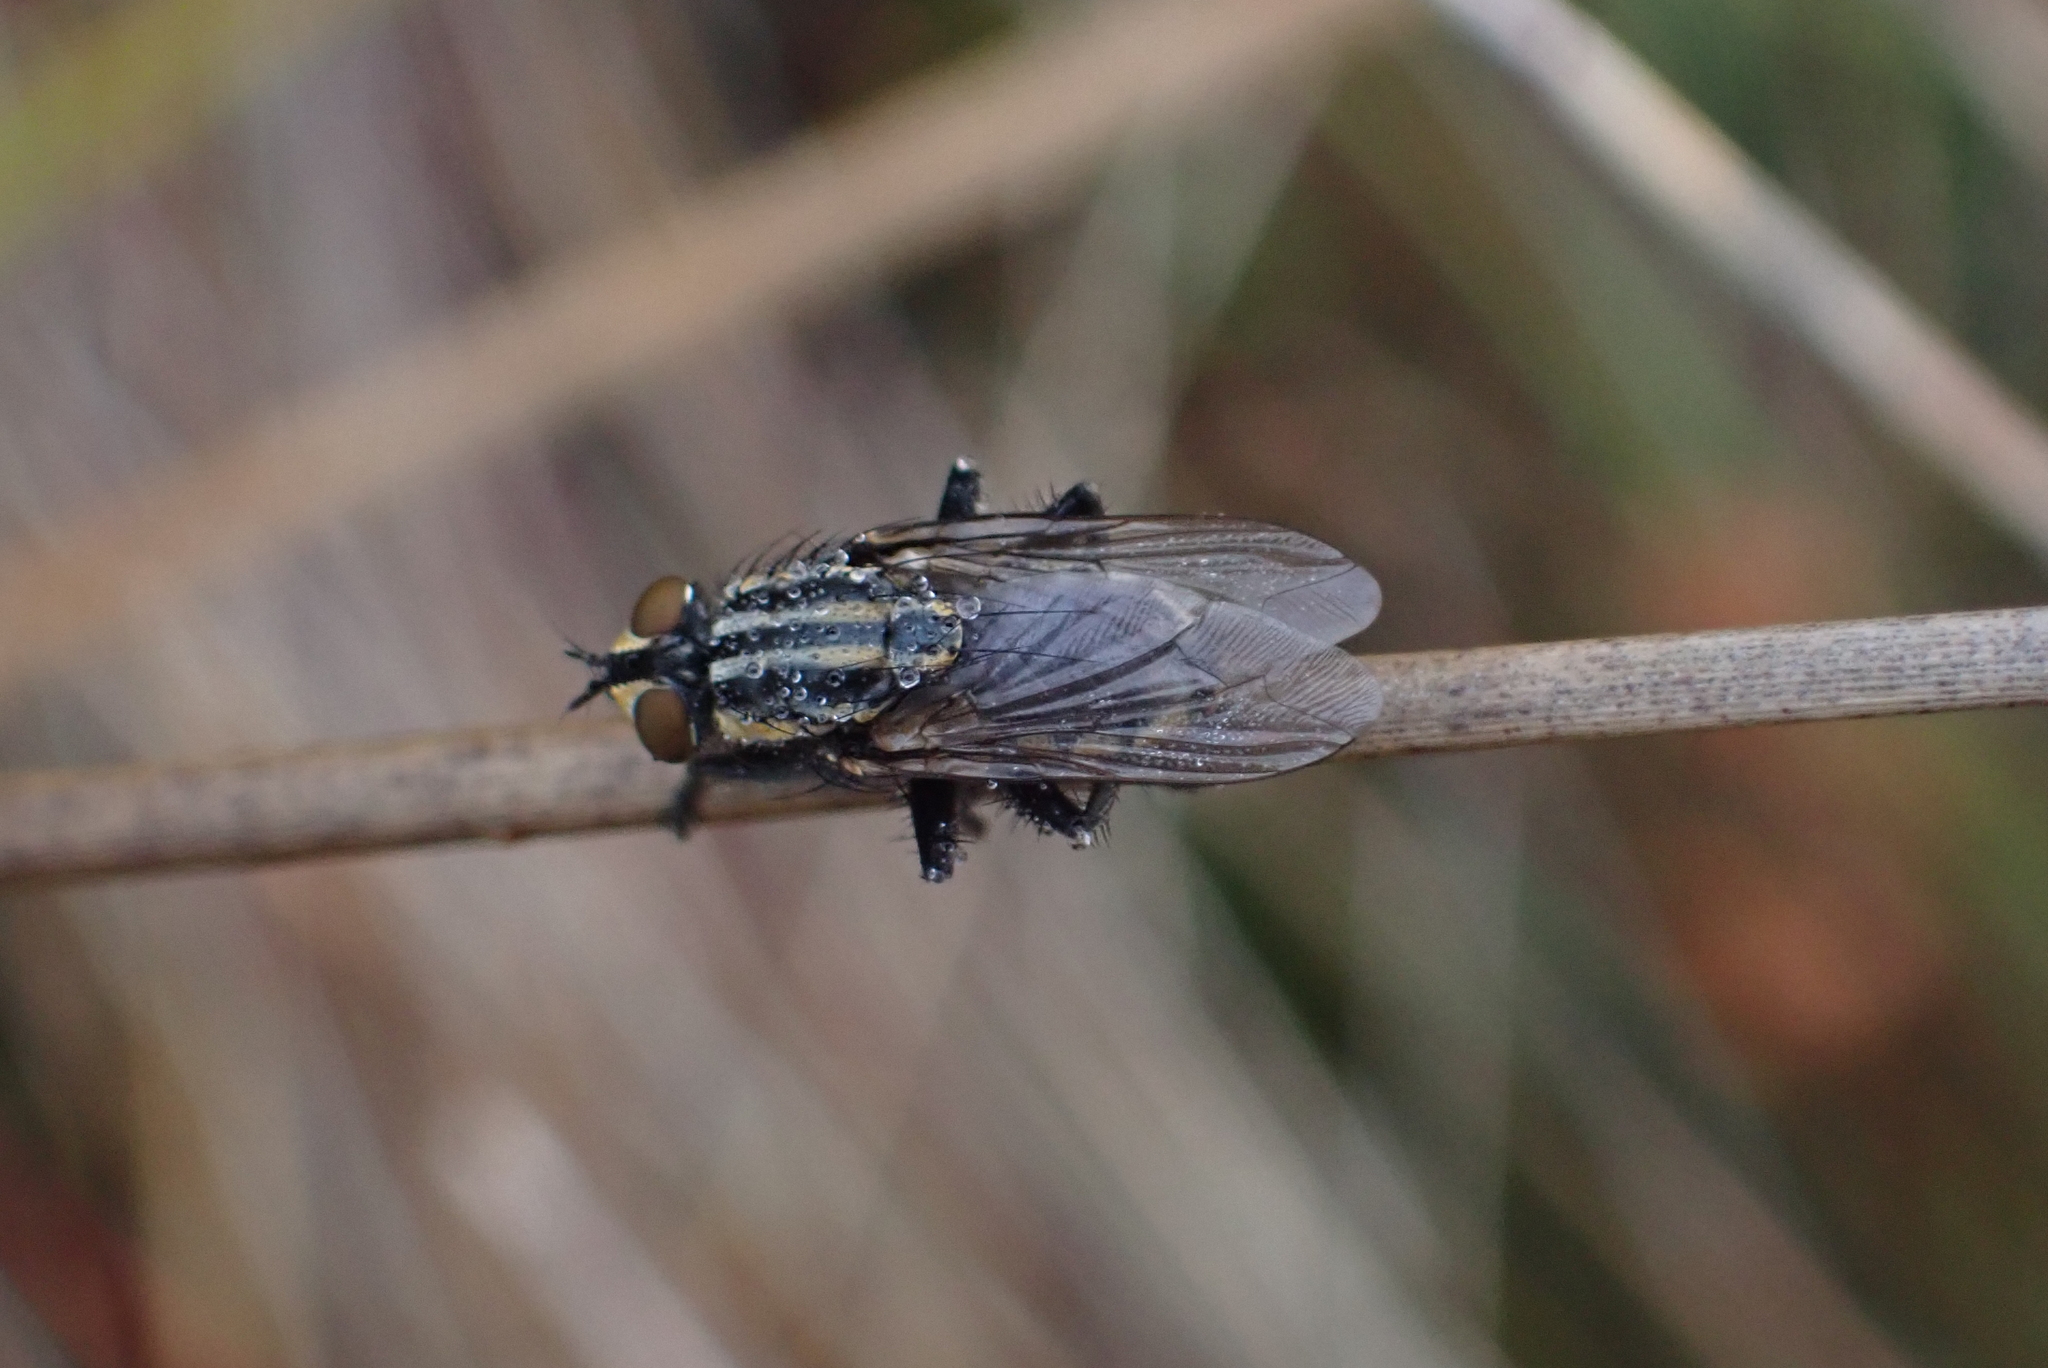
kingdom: Animalia
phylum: Arthropoda
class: Insecta
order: Diptera
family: Sarcophagidae
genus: Oxysarcodexia
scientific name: Oxysarcodexia varia
